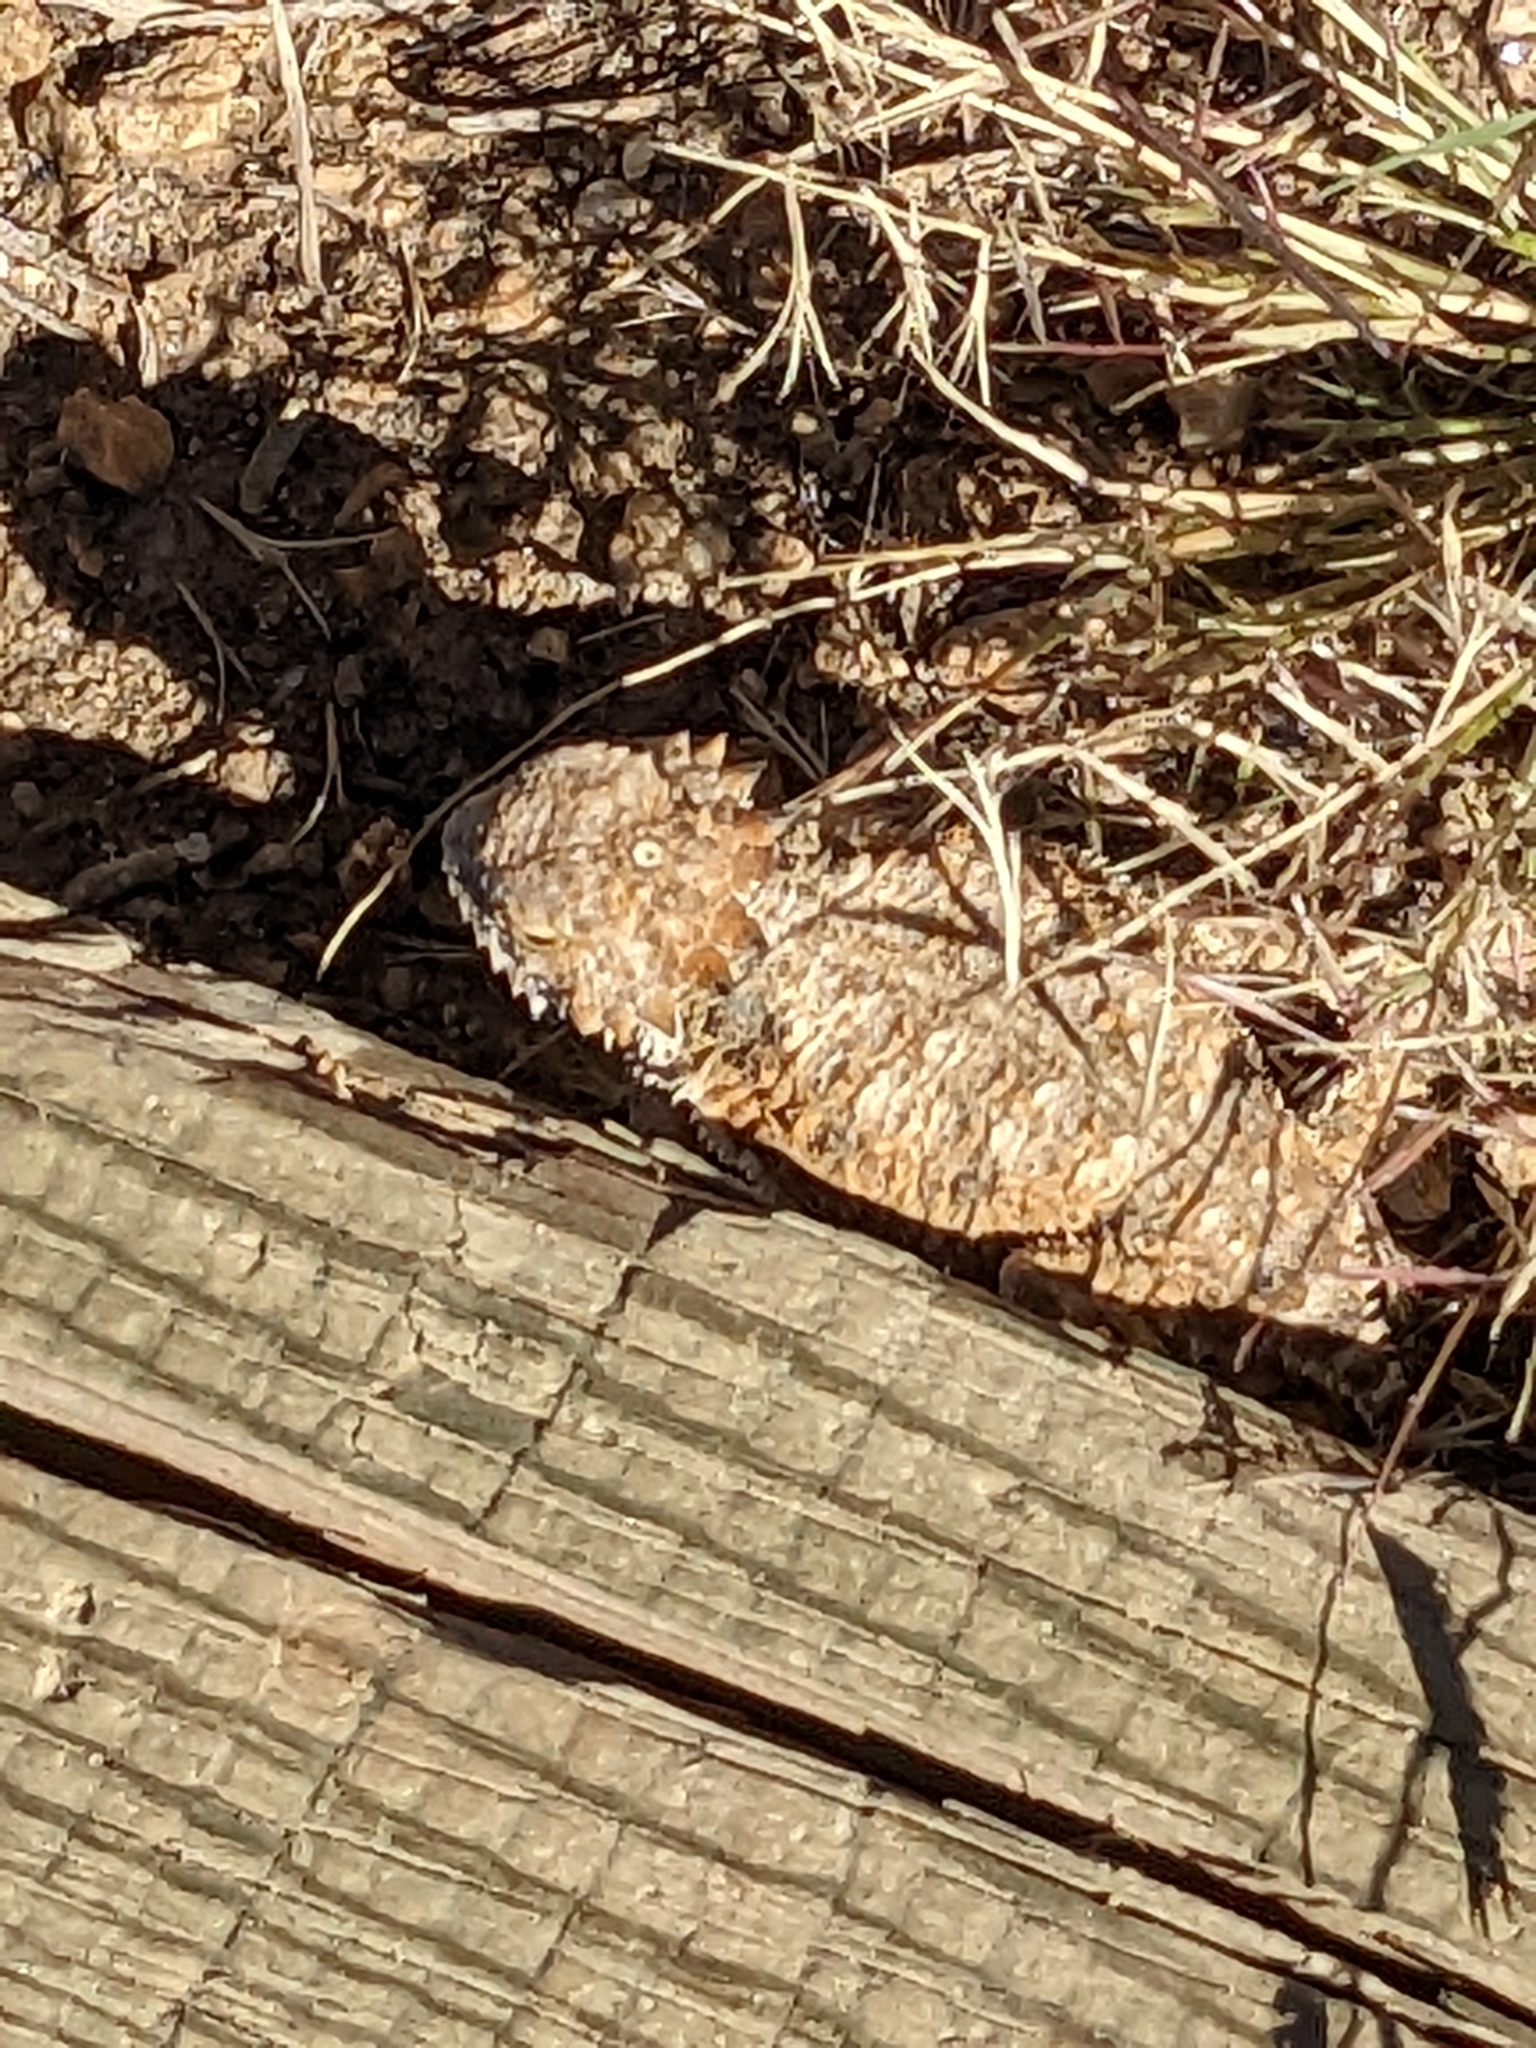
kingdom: Animalia
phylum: Chordata
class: Squamata
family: Phrynosomatidae
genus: Phrynosoma
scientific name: Phrynosoma solare
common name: Regal horned lizard
